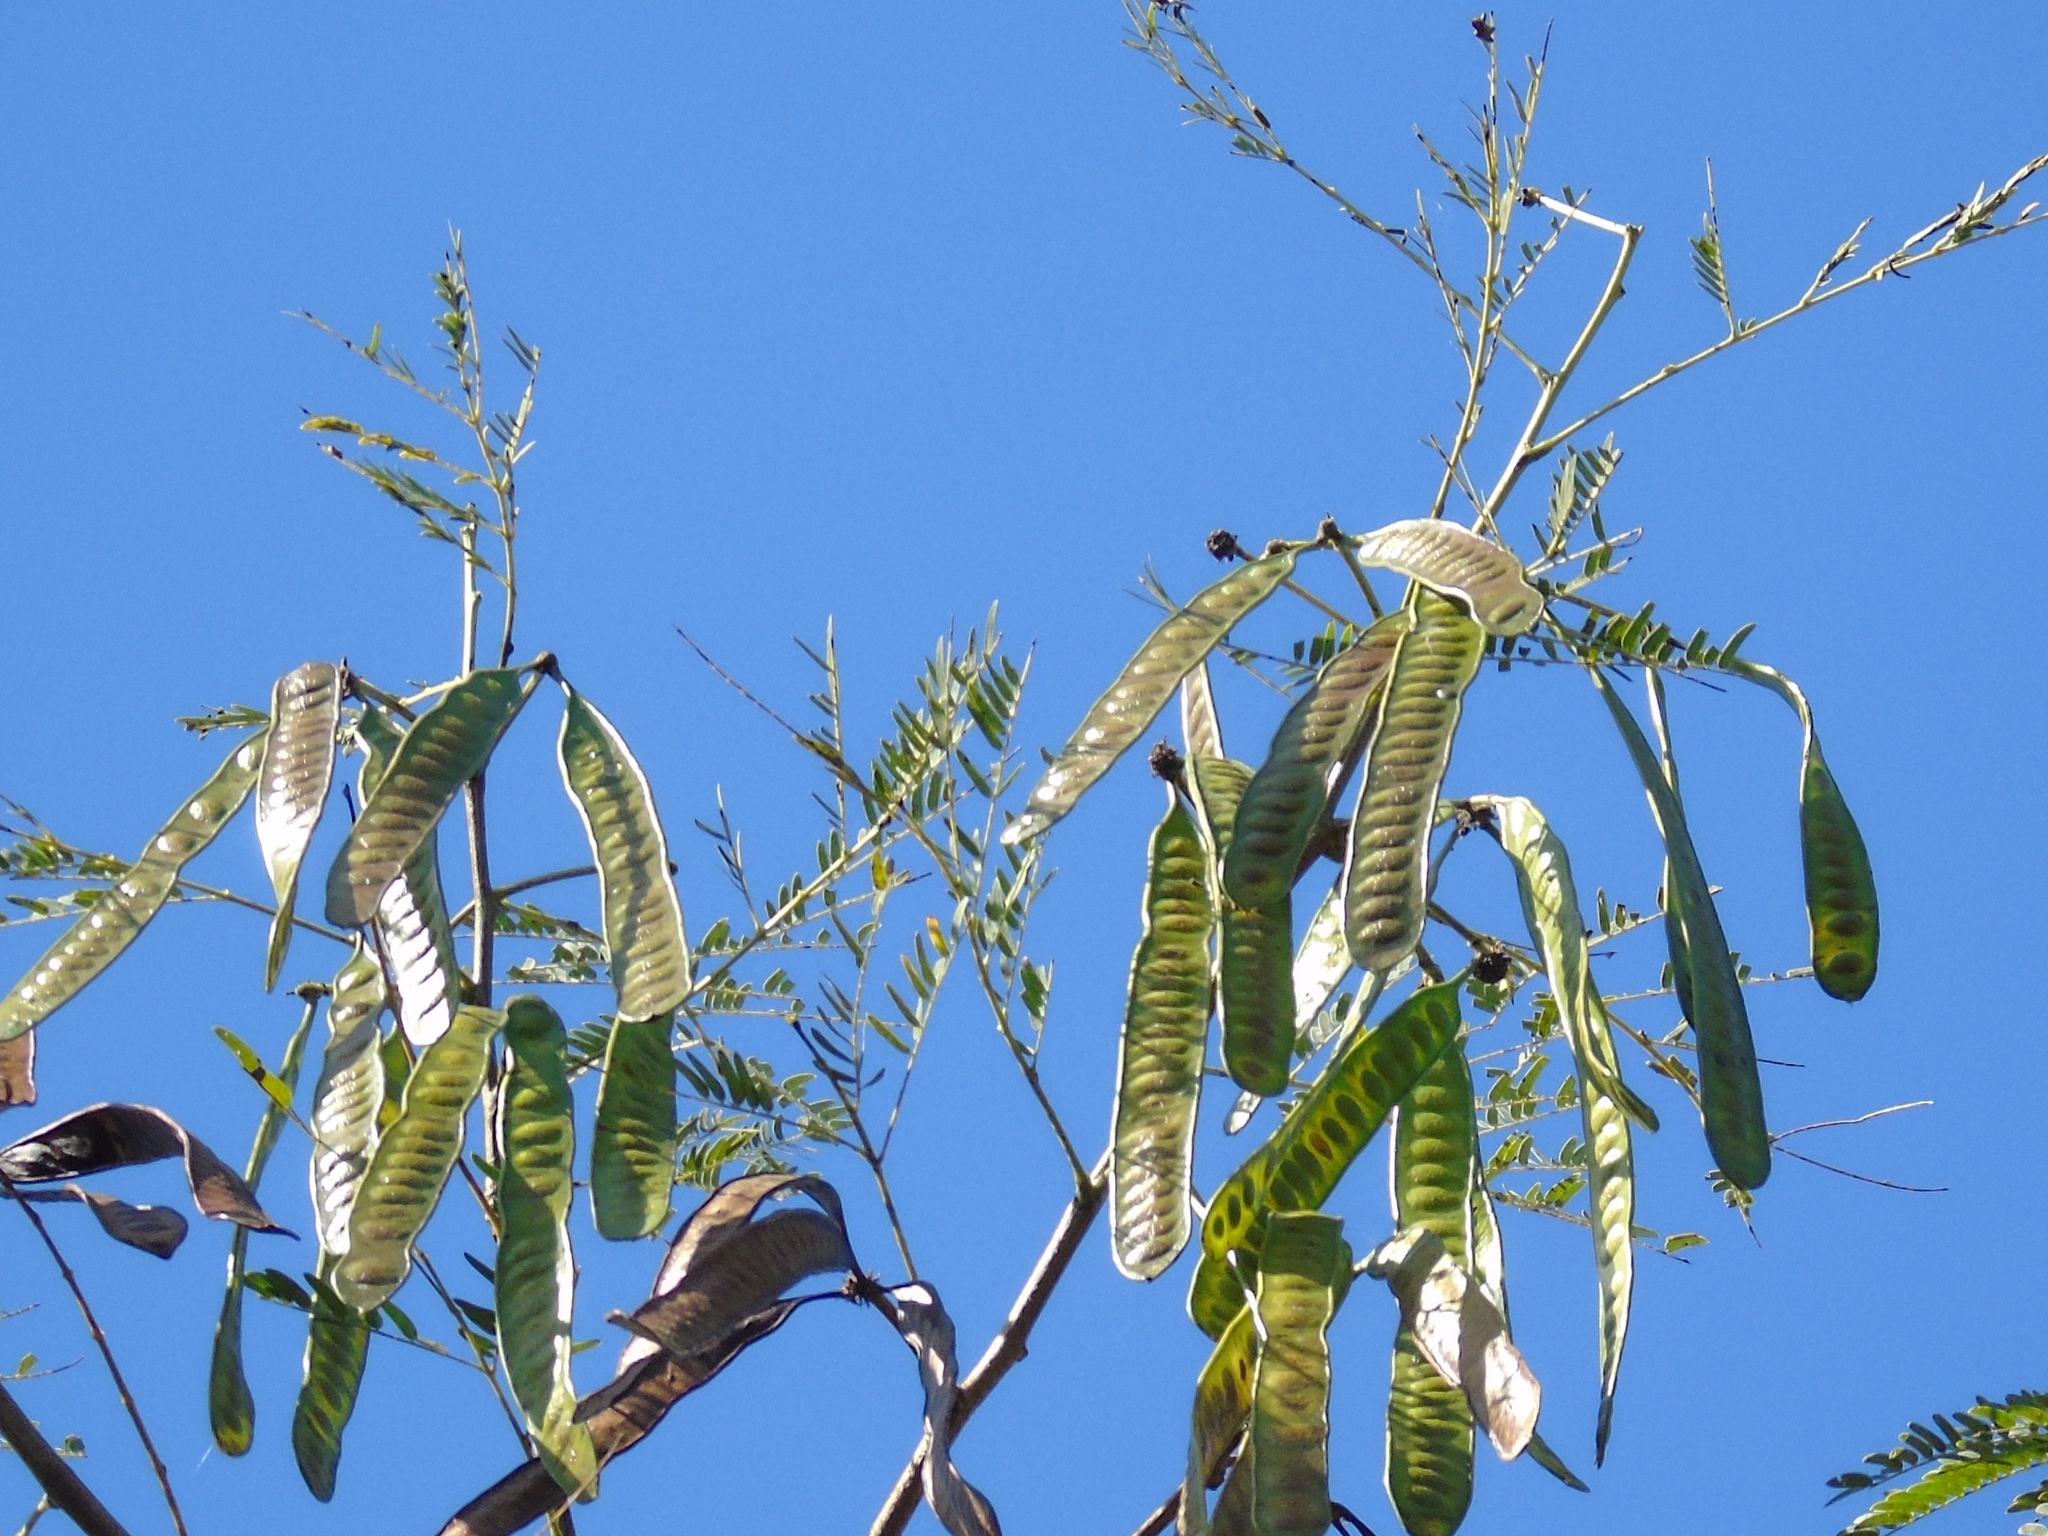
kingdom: Plantae
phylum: Tracheophyta
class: Magnoliopsida
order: Fabales
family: Fabaceae
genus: Leucaena
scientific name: Leucaena leucocephala
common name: White leadtree
